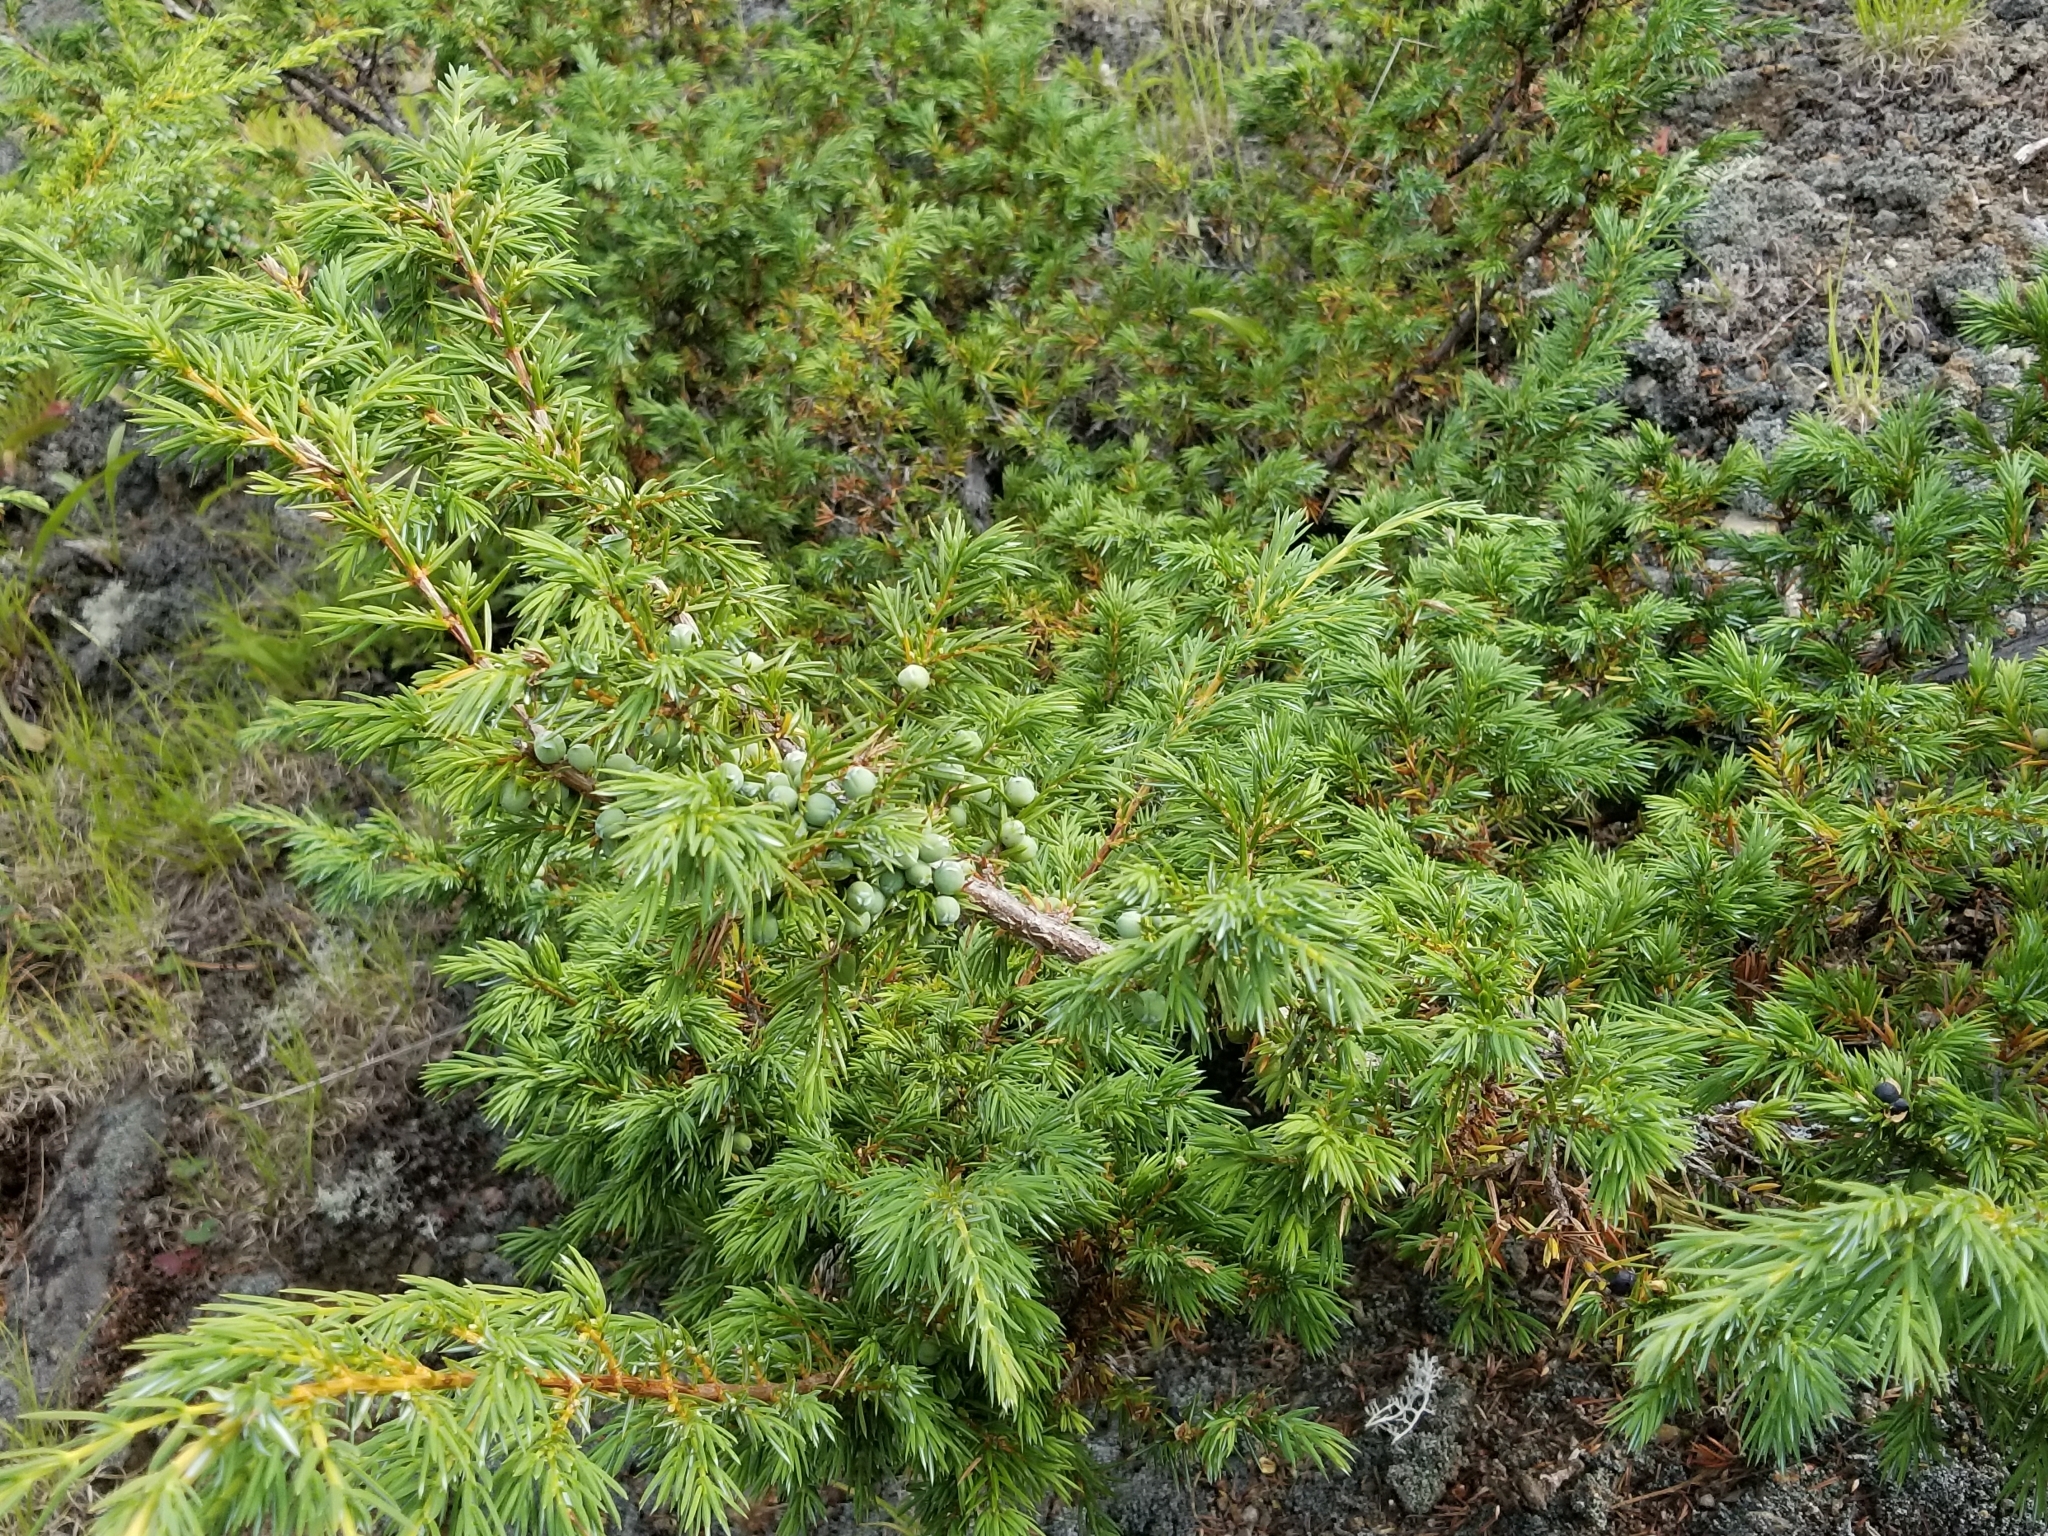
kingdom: Plantae
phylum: Tracheophyta
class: Pinopsida
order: Pinales
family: Cupressaceae
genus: Juniperus
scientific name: Juniperus communis
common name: Common juniper
